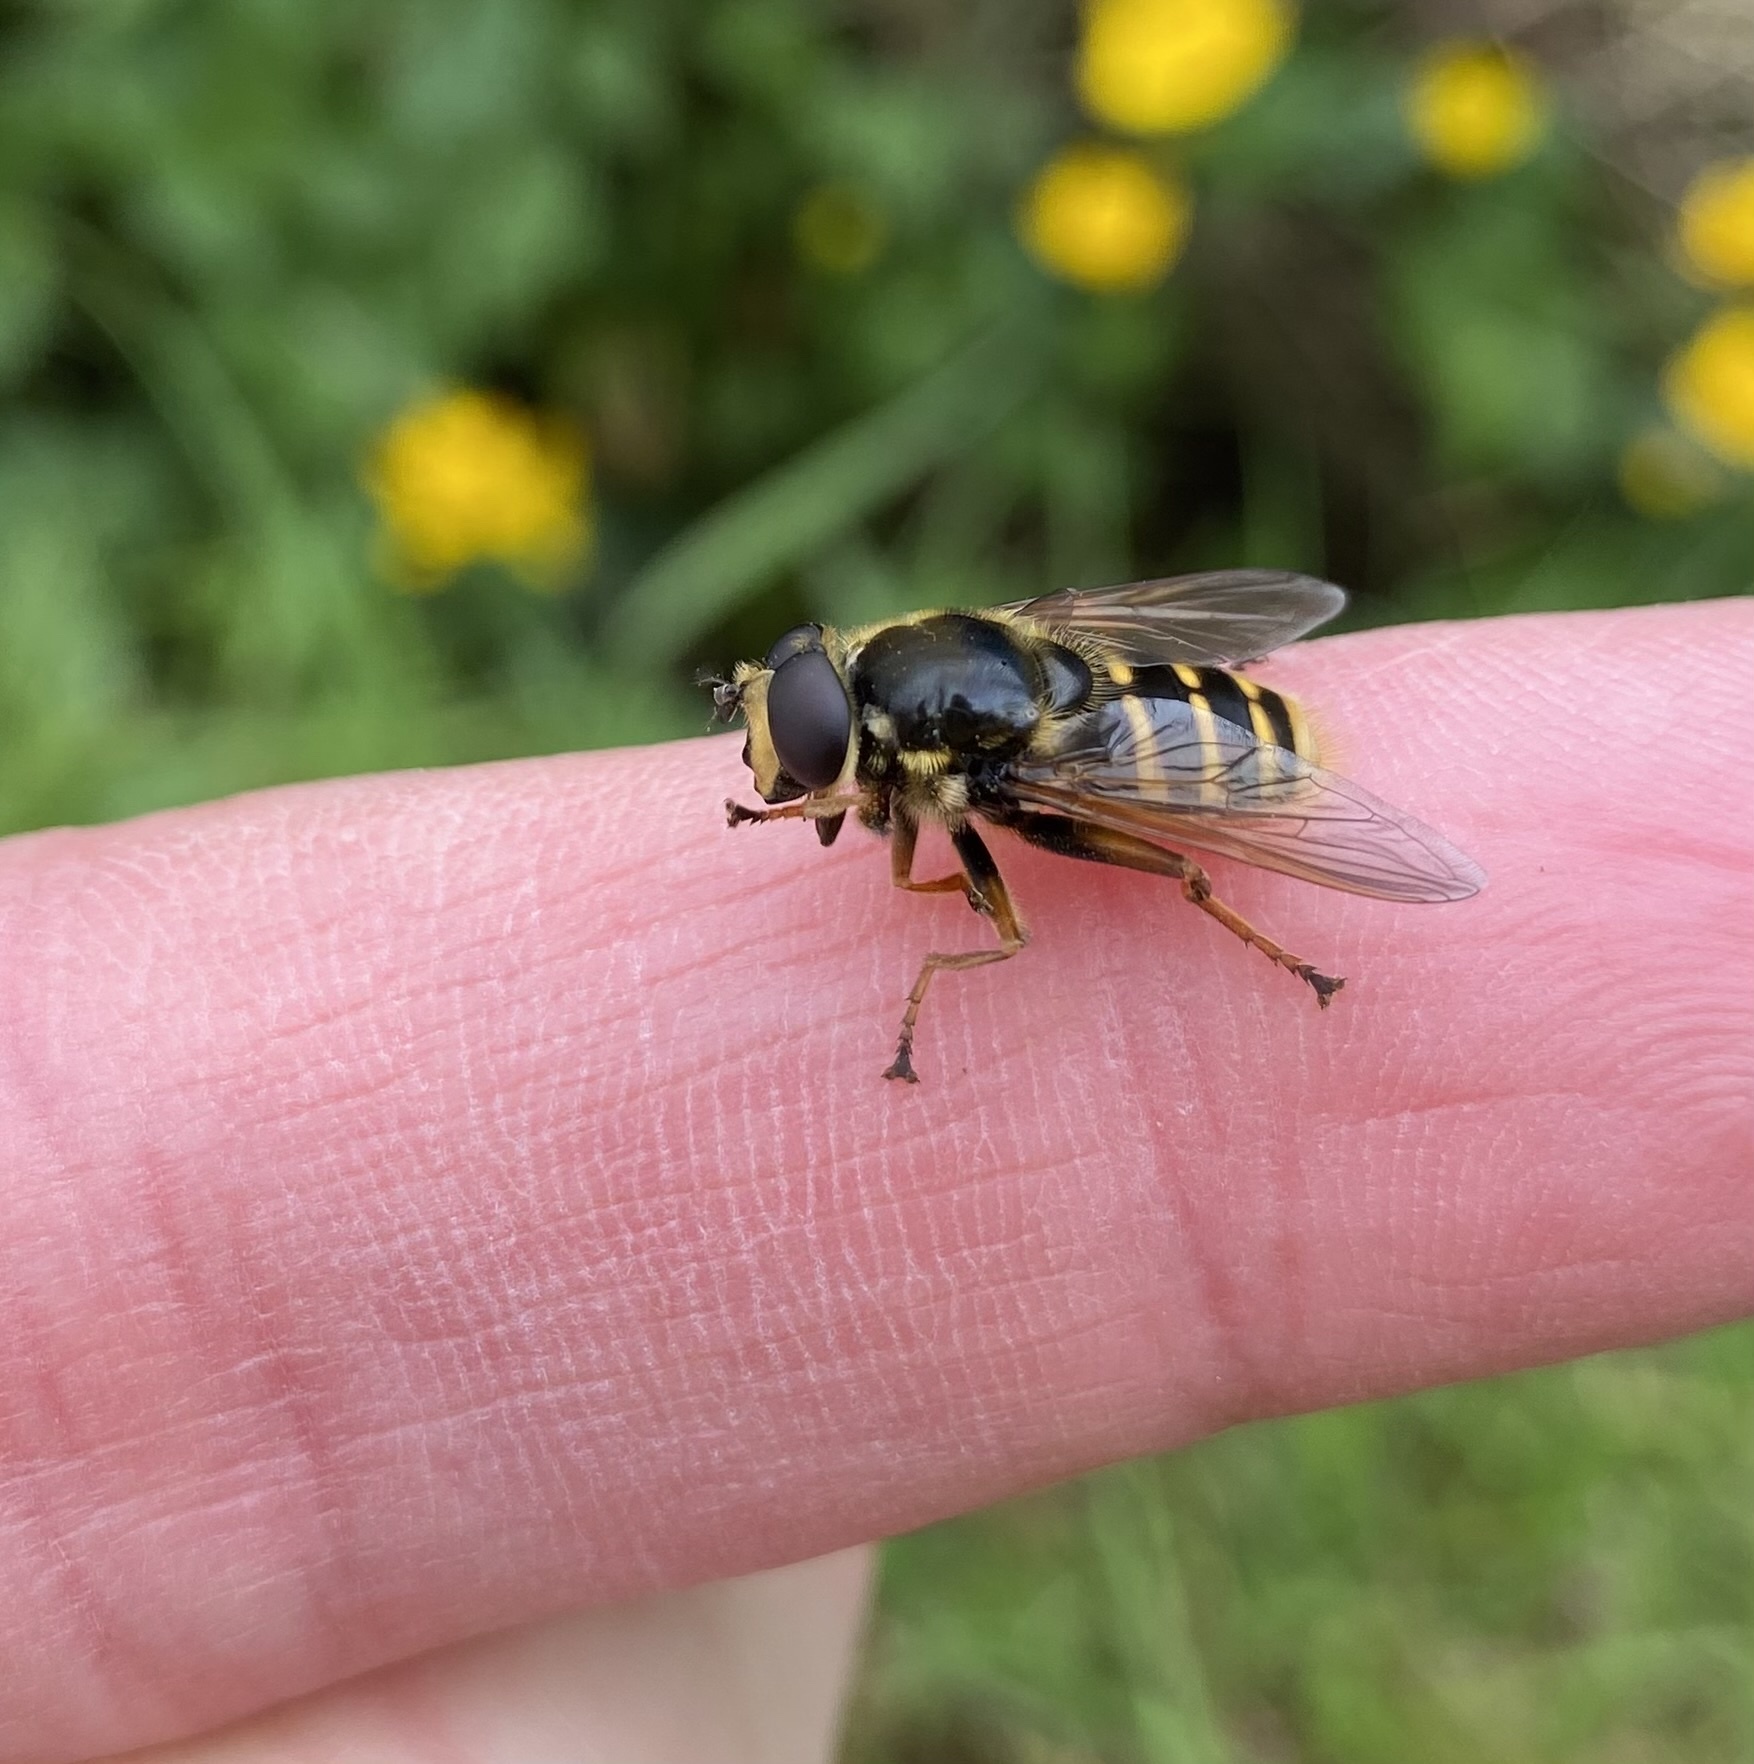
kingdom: Animalia
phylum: Arthropoda
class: Insecta
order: Diptera
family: Syrphidae
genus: Sericomyia
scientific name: Sericomyia silentis
